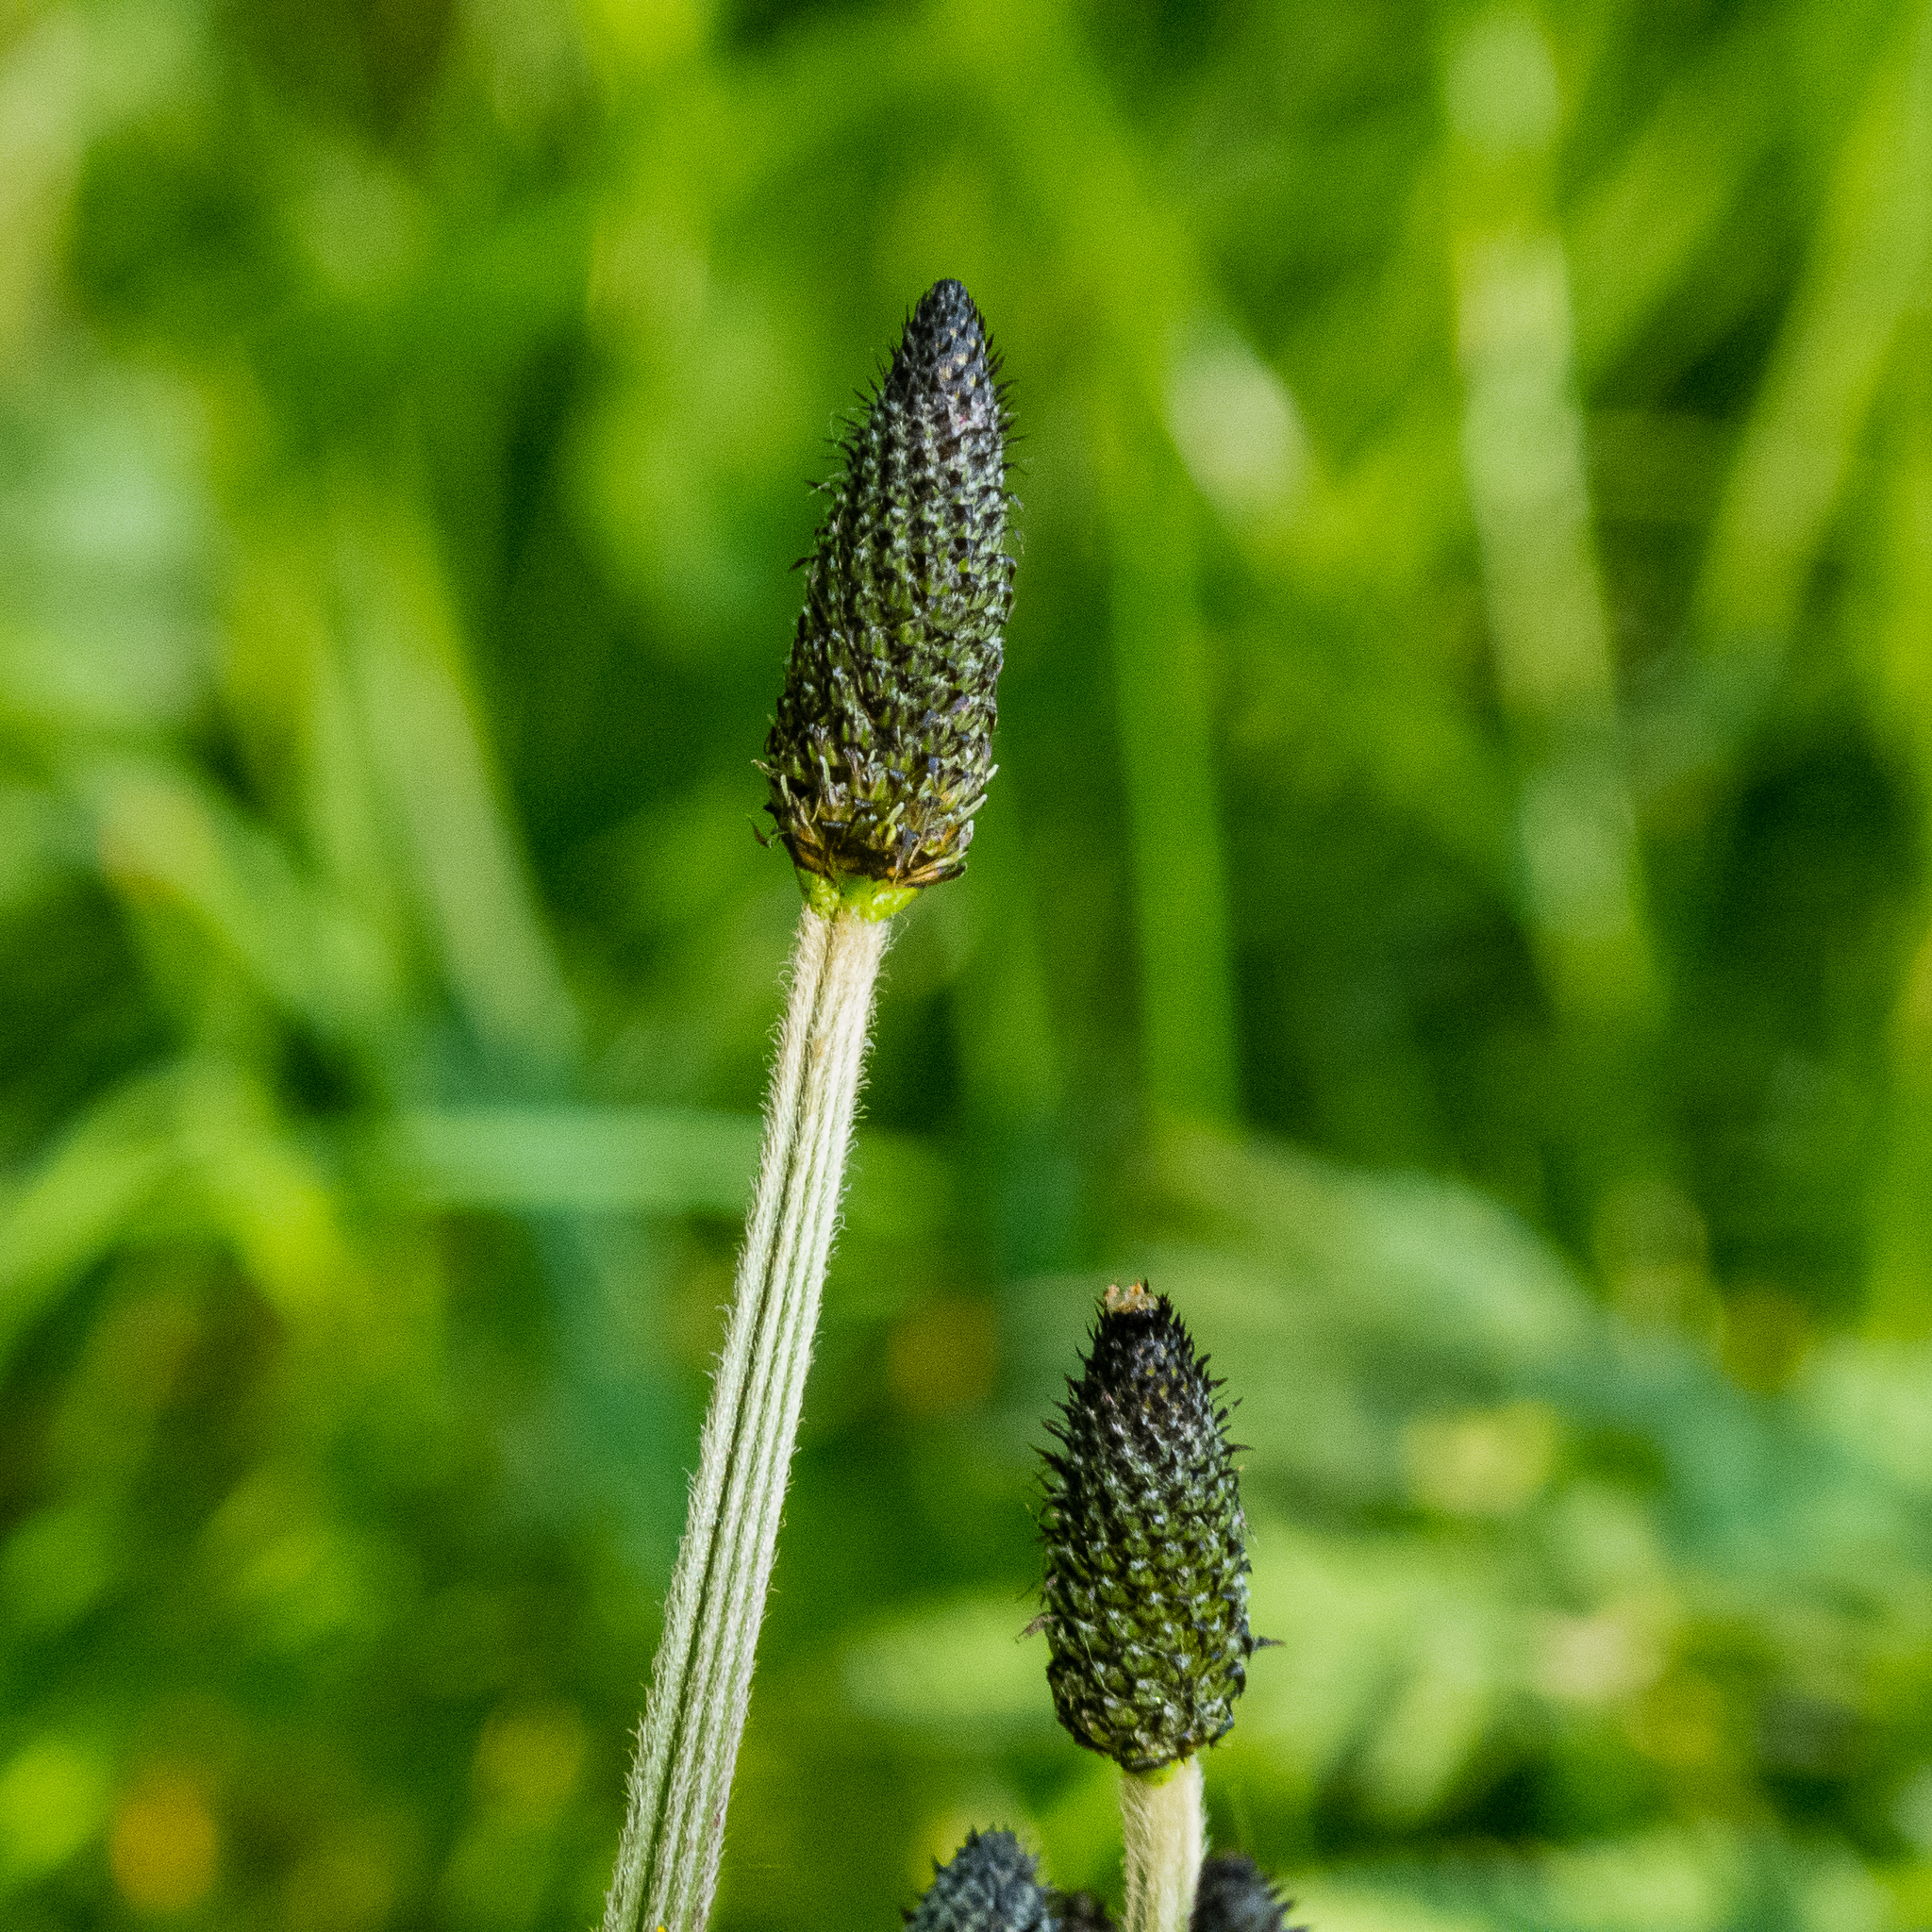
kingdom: Plantae
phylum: Tracheophyta
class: Magnoliopsida
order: Lamiales
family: Plantaginaceae
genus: Plantago
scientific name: Plantago lanceolata
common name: Ribwort plantain
